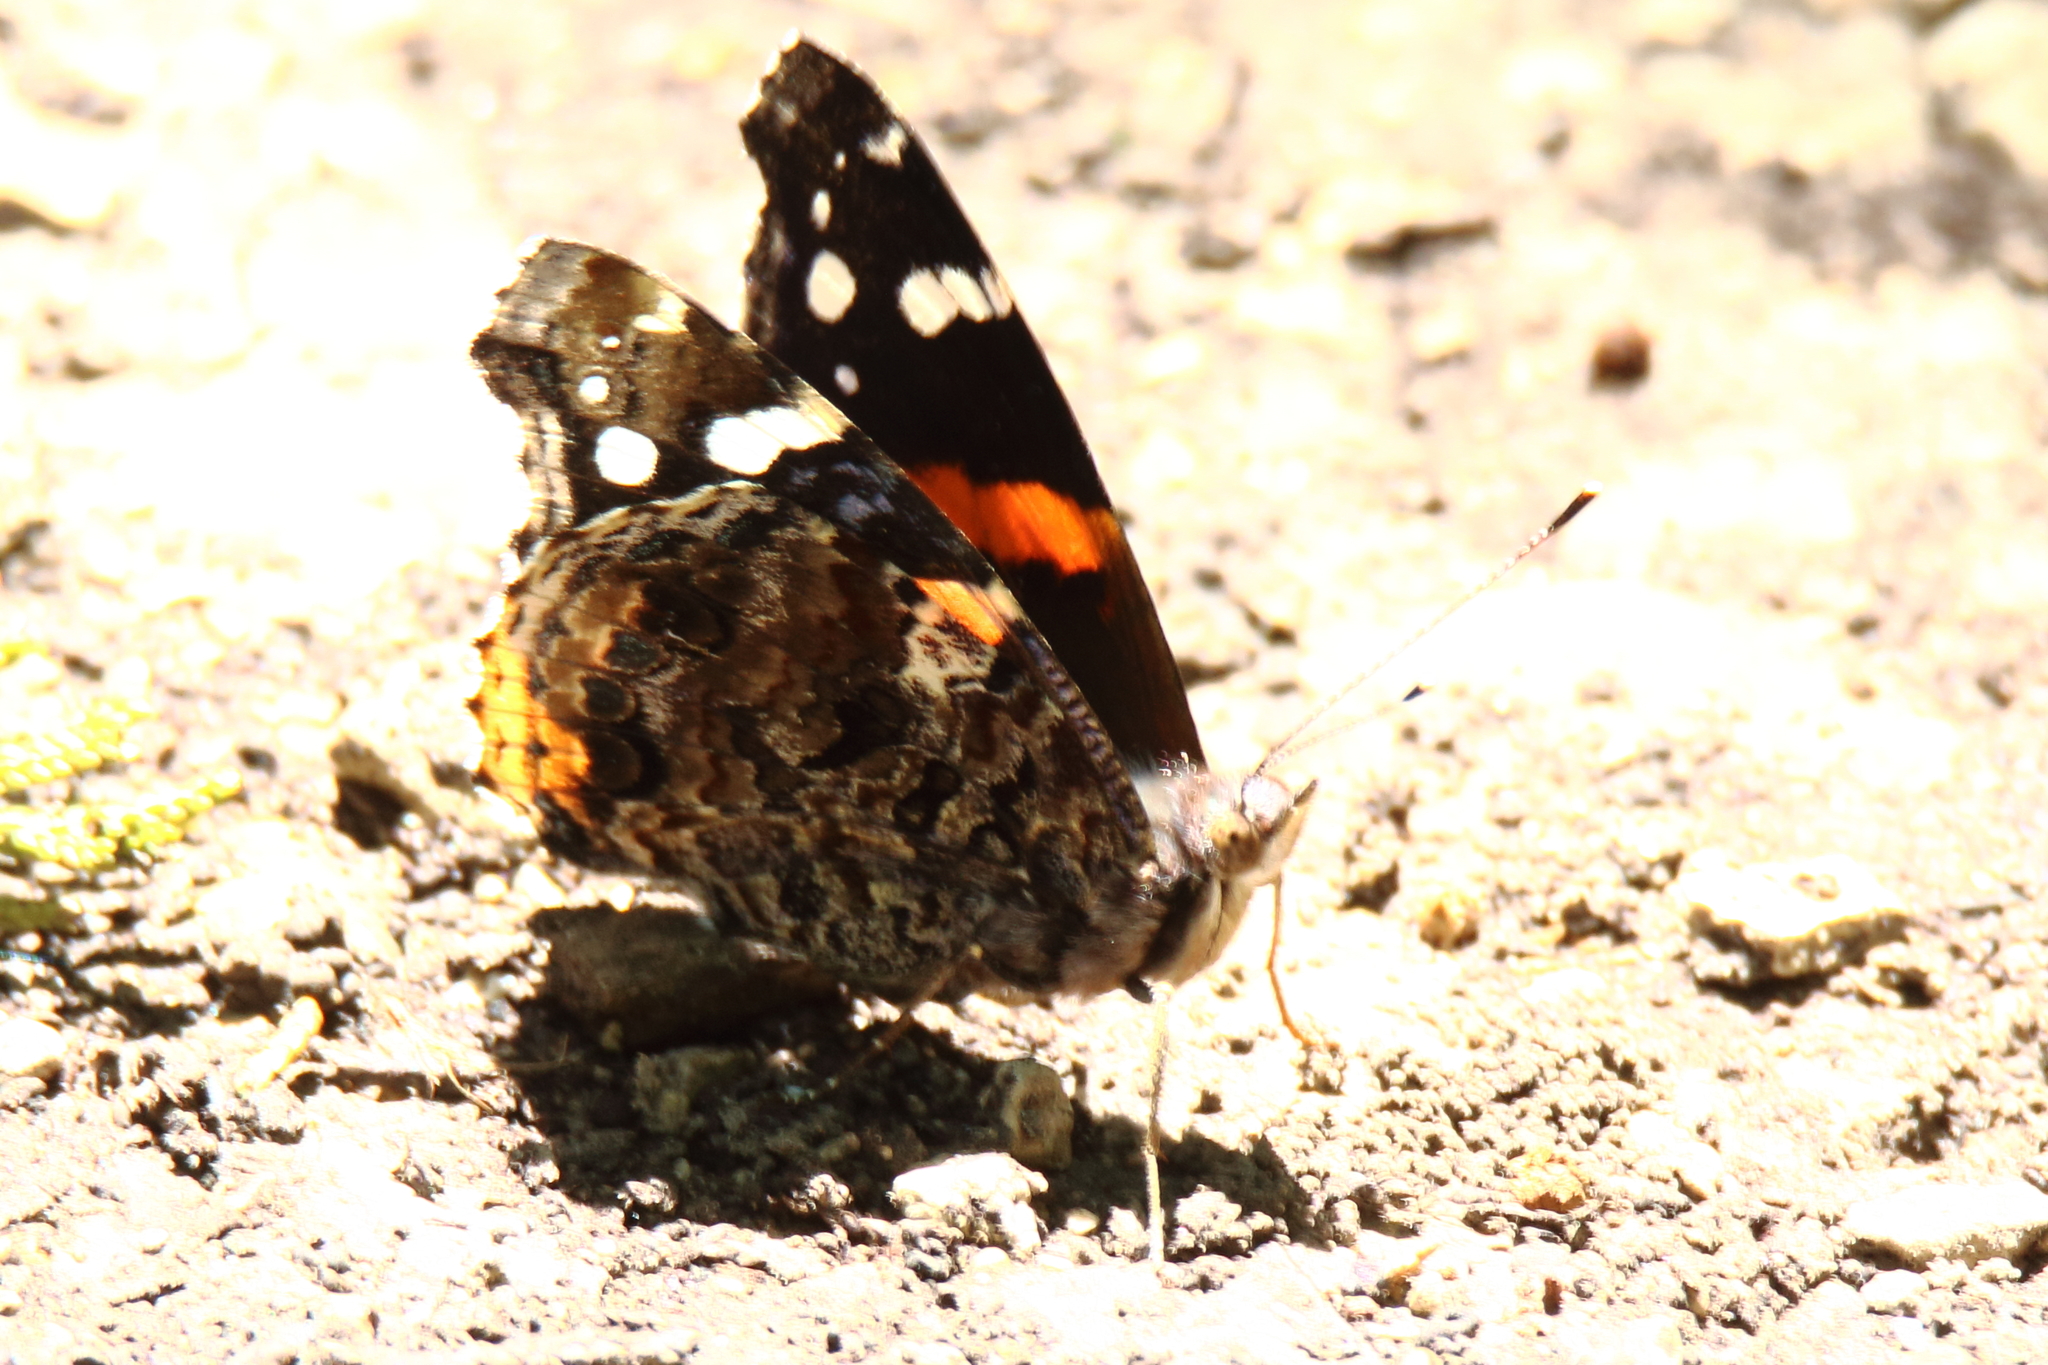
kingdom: Animalia
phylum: Arthropoda
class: Insecta
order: Lepidoptera
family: Nymphalidae
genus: Vanessa
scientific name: Vanessa atalanta
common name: Red admiral
